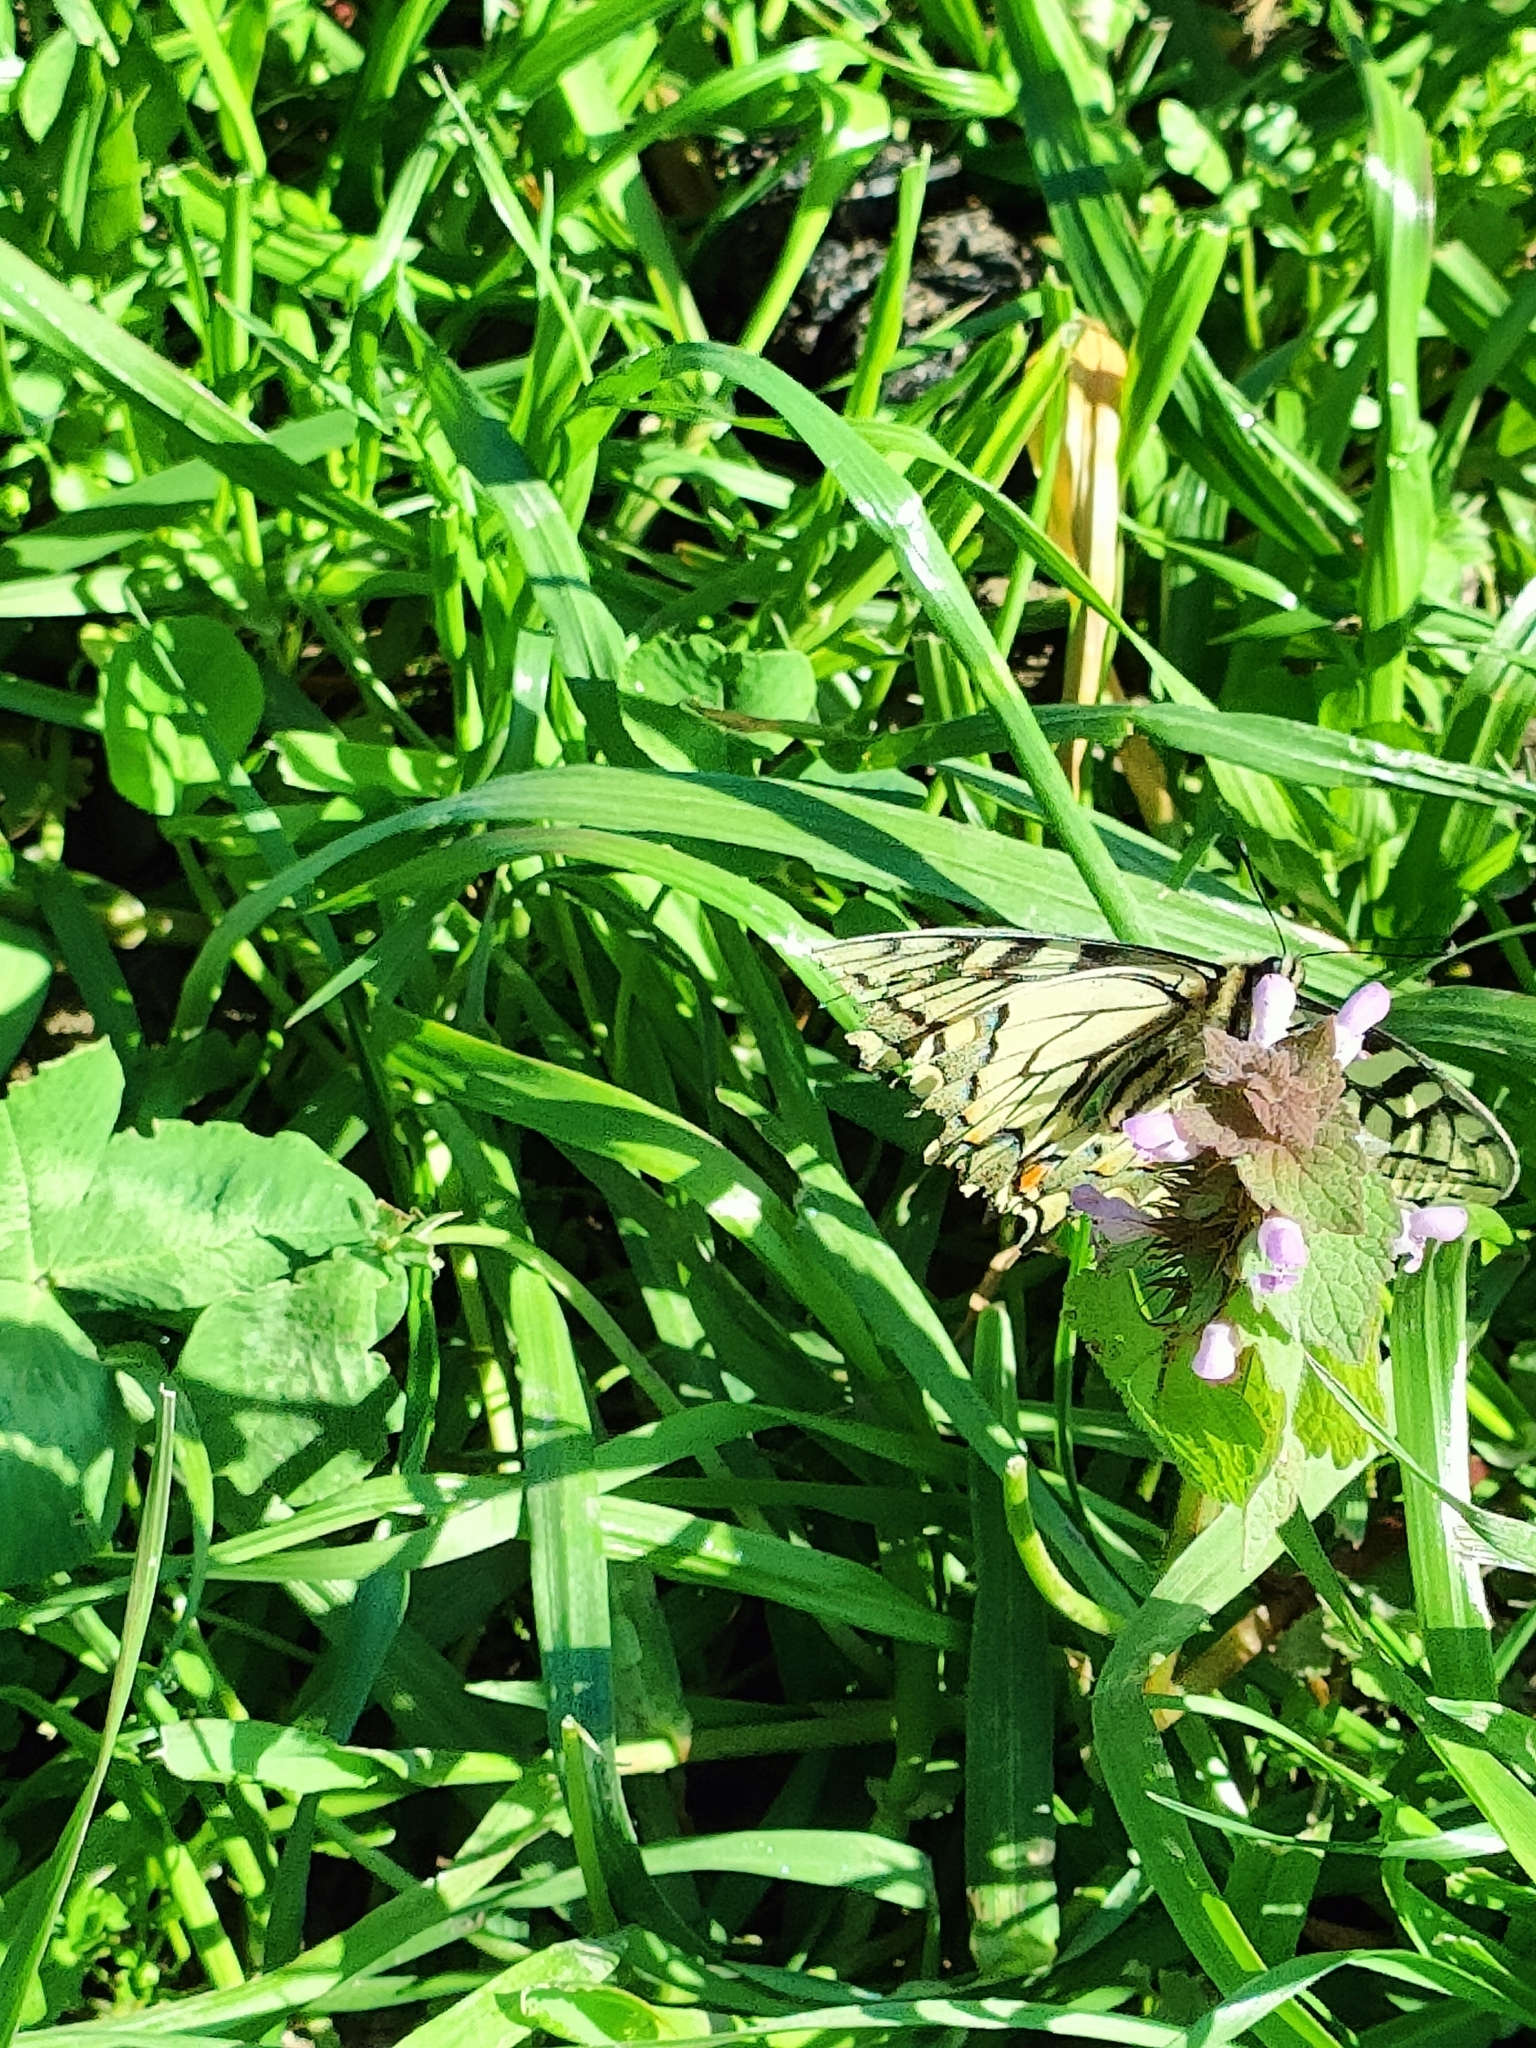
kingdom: Animalia
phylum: Arthropoda
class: Insecta
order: Lepidoptera
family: Papilionidae
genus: Papilio
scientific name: Papilio machaon
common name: Swallowtail
